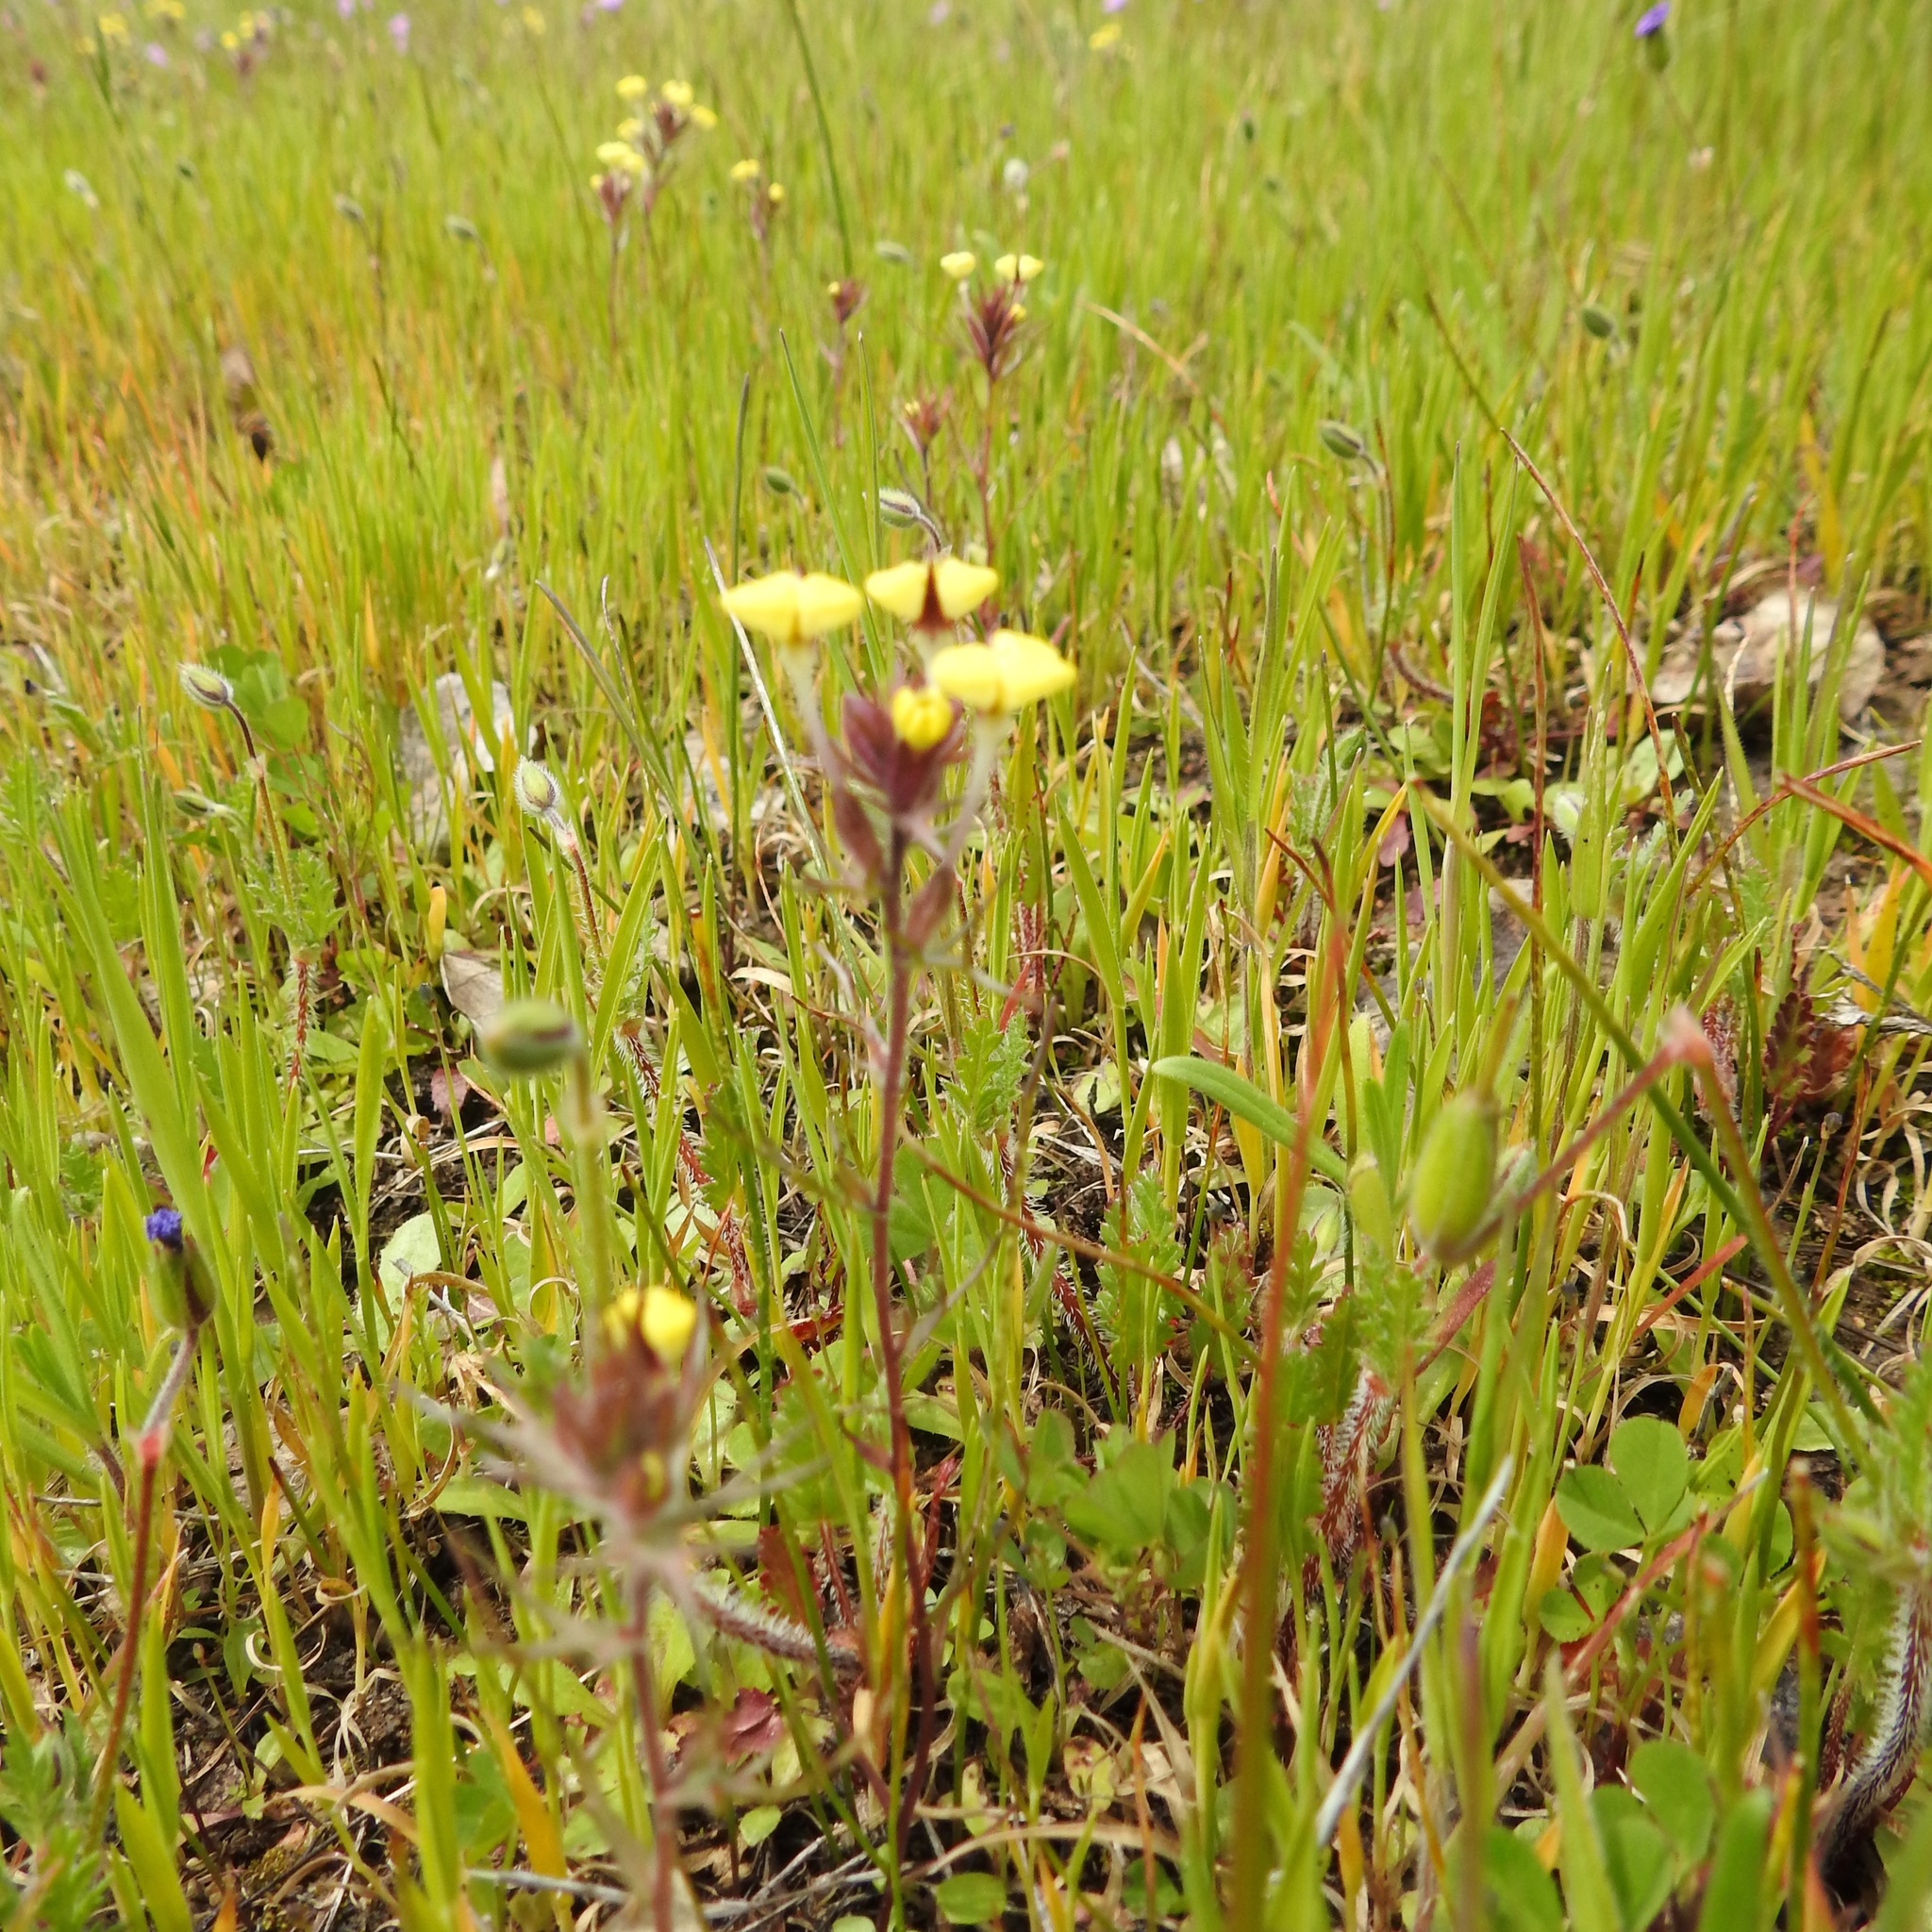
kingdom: Plantae
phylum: Tracheophyta
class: Magnoliopsida
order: Lamiales
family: Orobanchaceae
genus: Triphysaria
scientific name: Triphysaria eriantha
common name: Johnny-tuck
